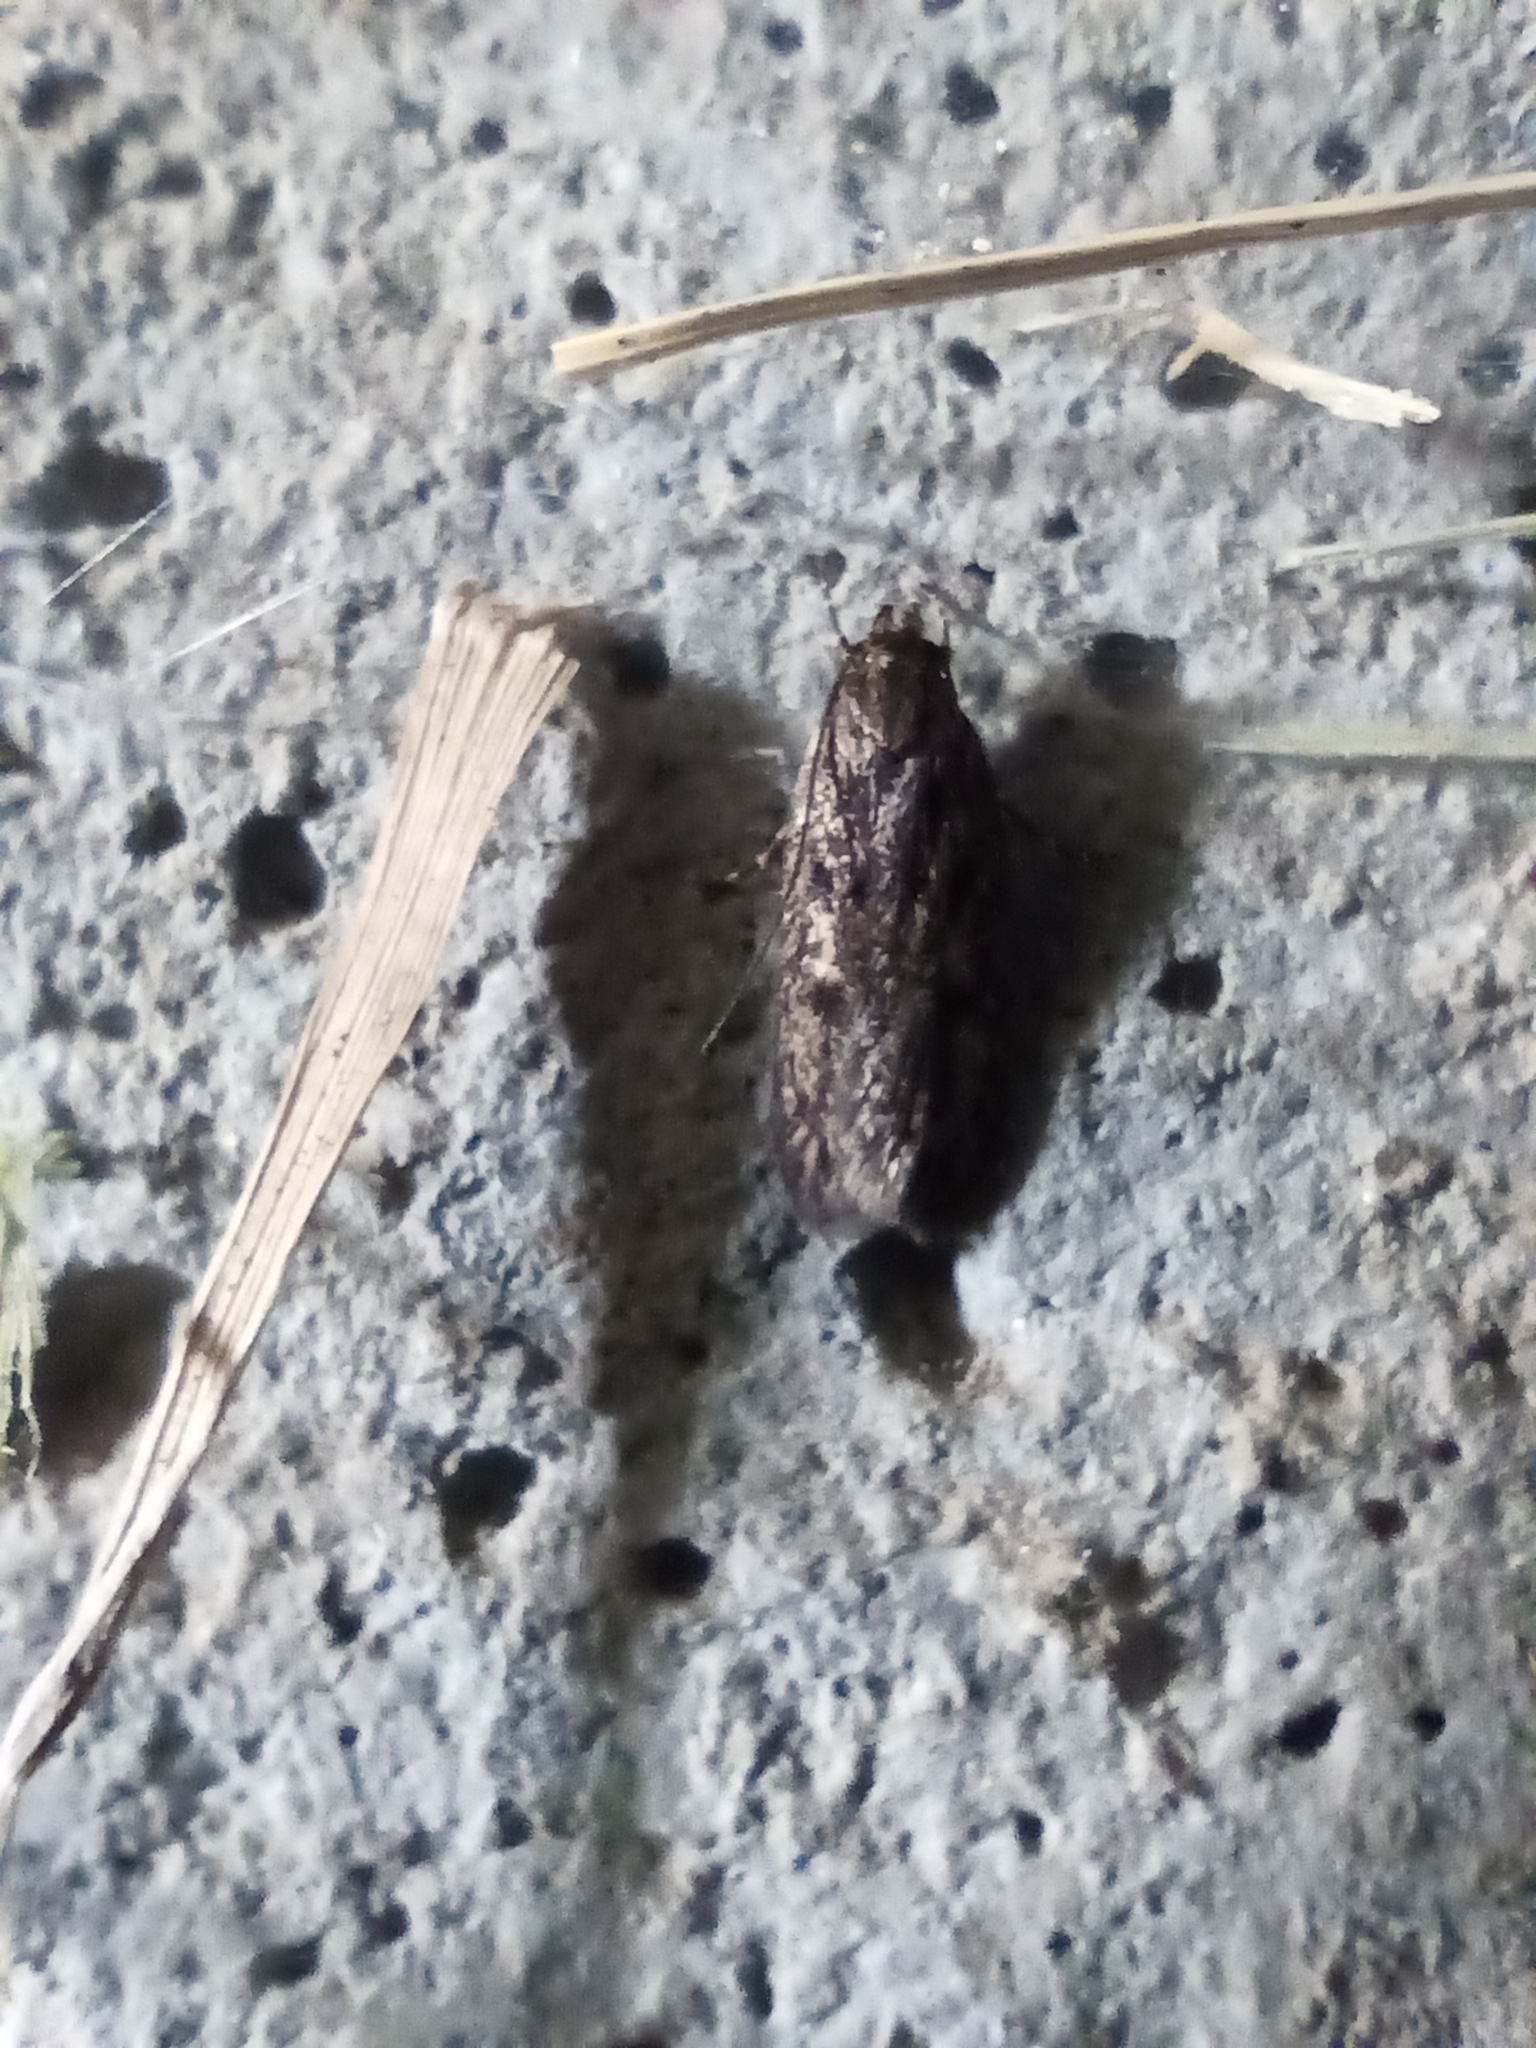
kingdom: Animalia
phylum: Arthropoda
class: Insecta
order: Lepidoptera
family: Oecophoridae
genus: Hofmannophila
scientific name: Hofmannophila pseudospretella
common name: Brown house moth
